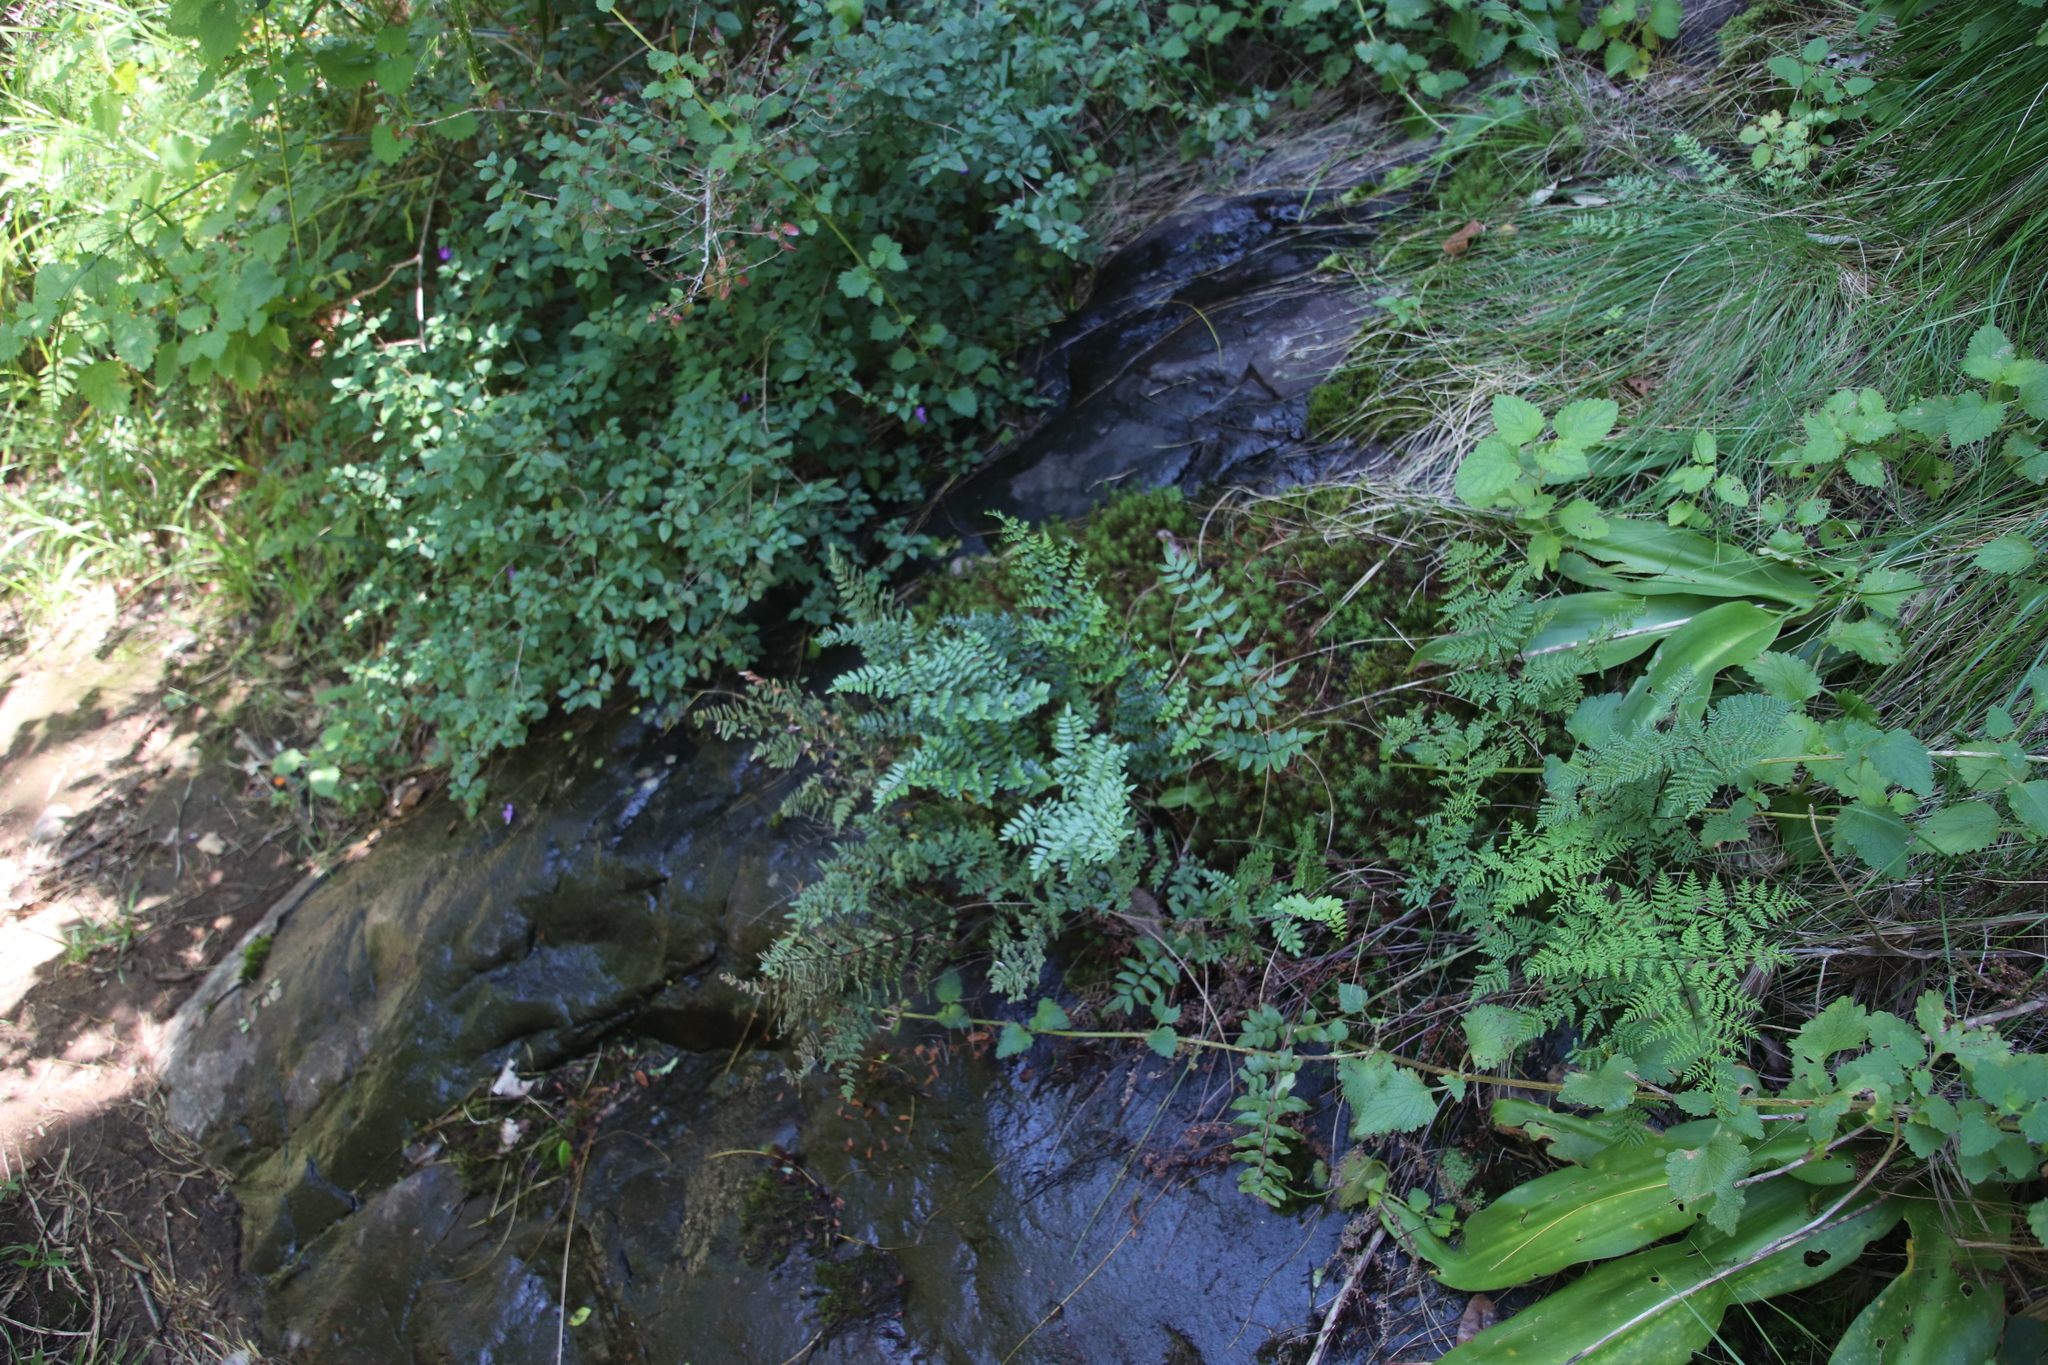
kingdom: Plantae
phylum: Tracheophyta
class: Polypodiopsida
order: Polypodiales
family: Pteridaceae
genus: Pellaea
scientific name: Pellaea boivinii
